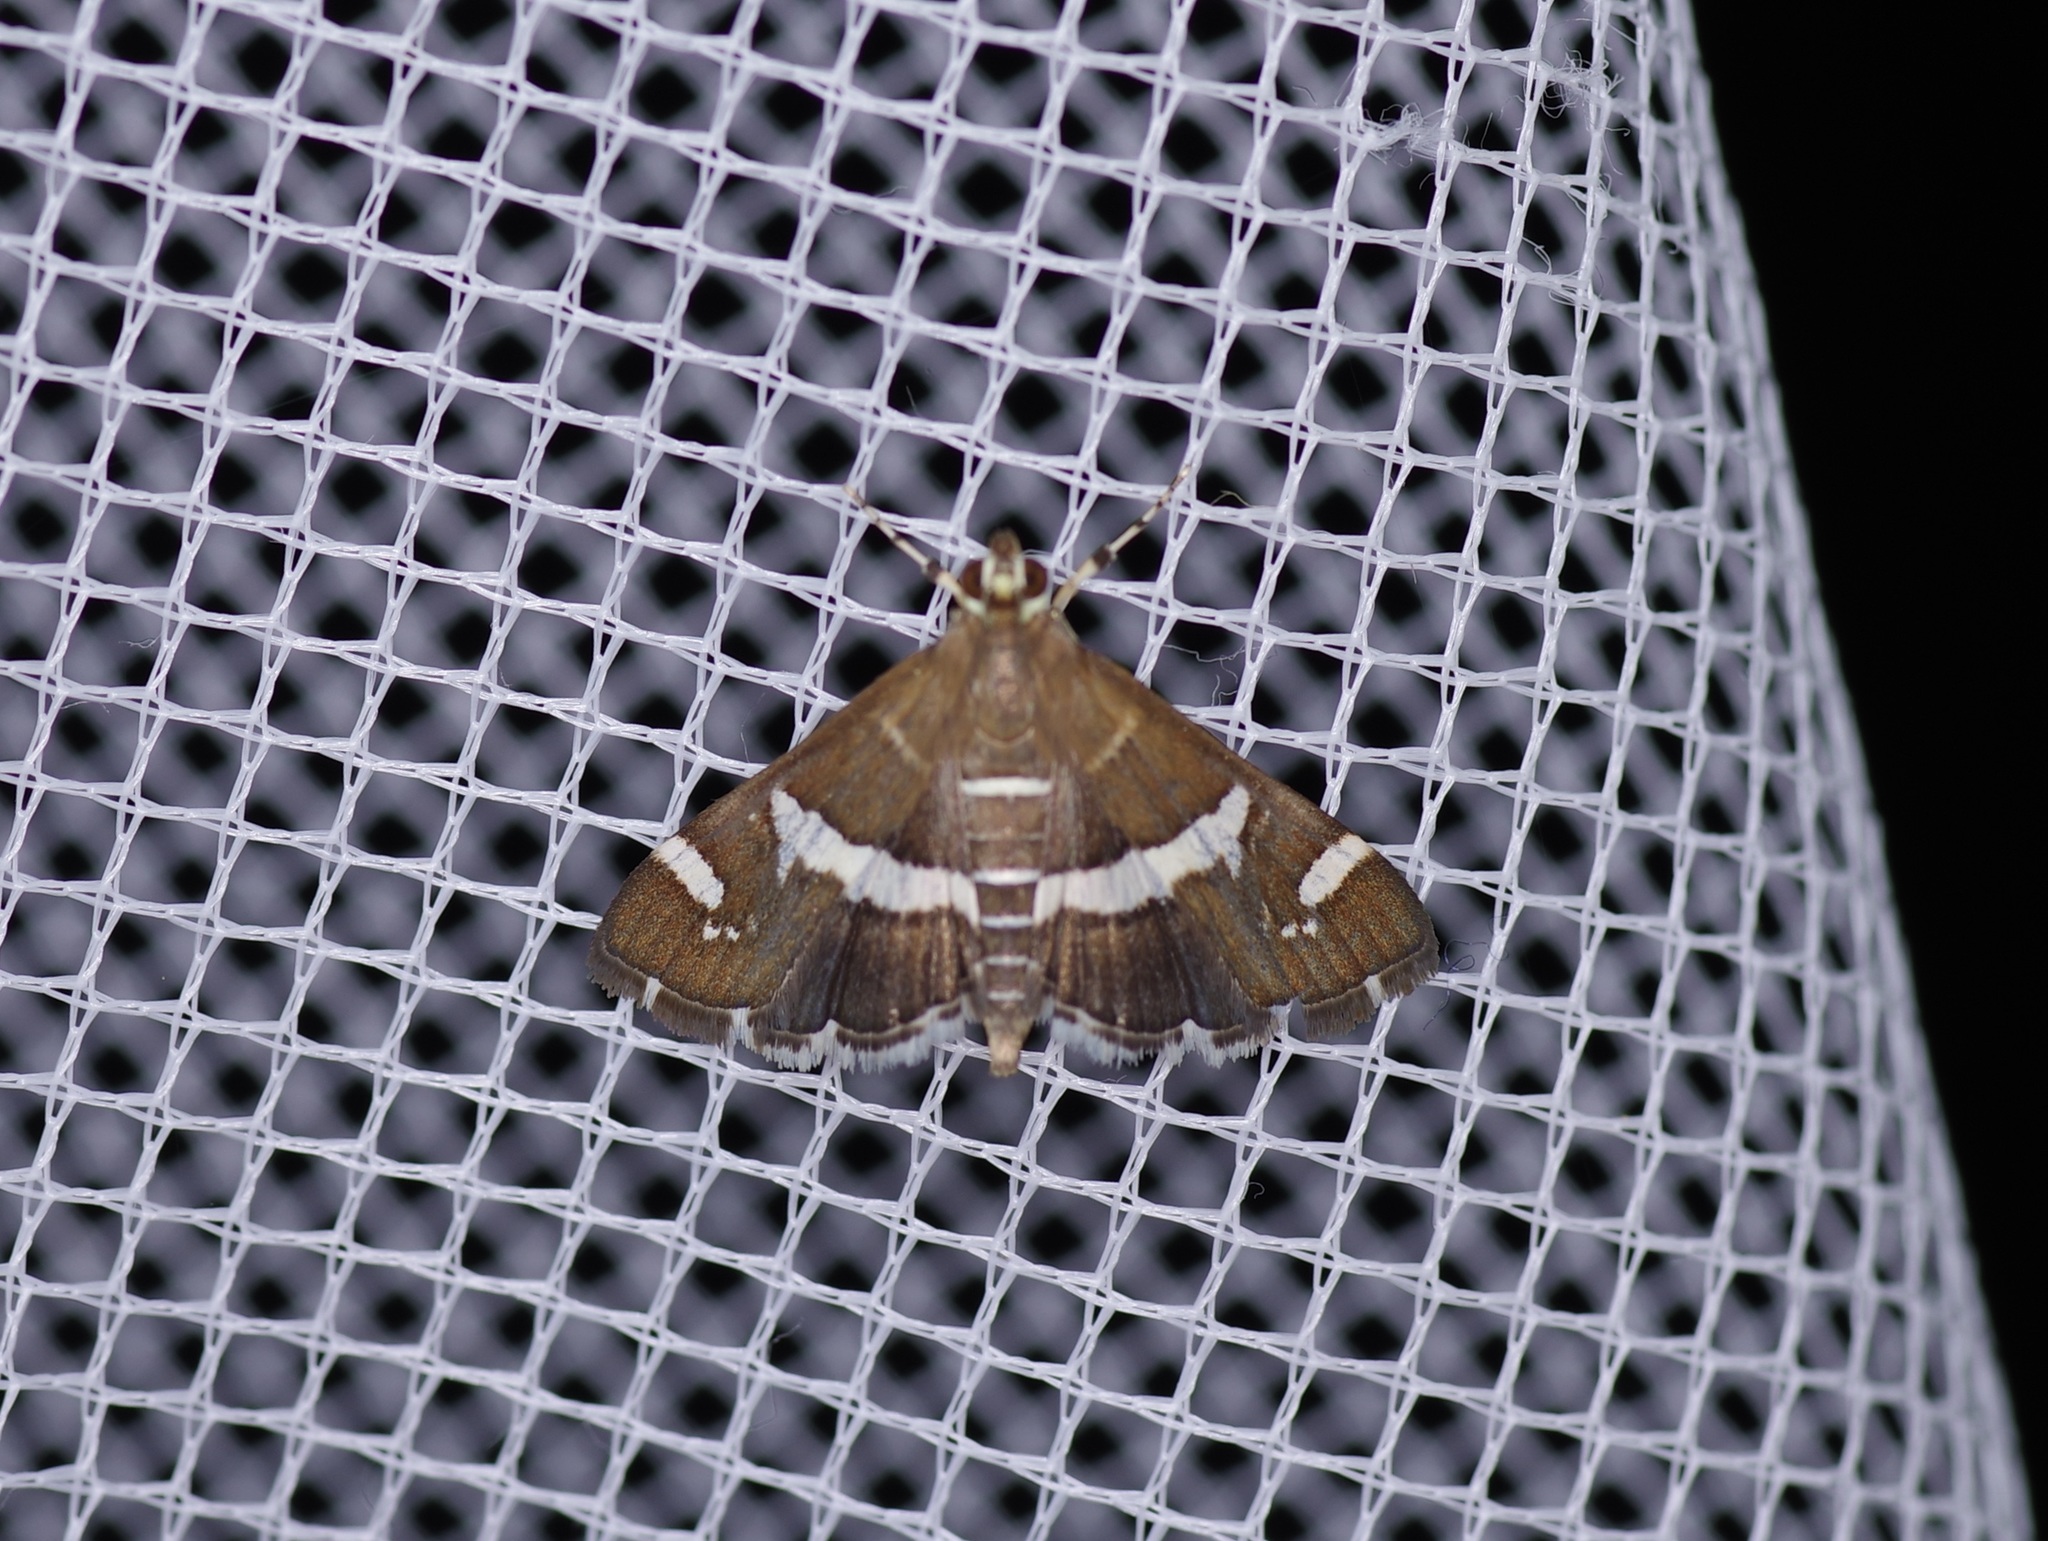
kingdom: Animalia
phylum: Arthropoda
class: Insecta
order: Lepidoptera
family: Crambidae
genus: Spoladea
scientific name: Spoladea recurvalis
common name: Beet webworm moth
